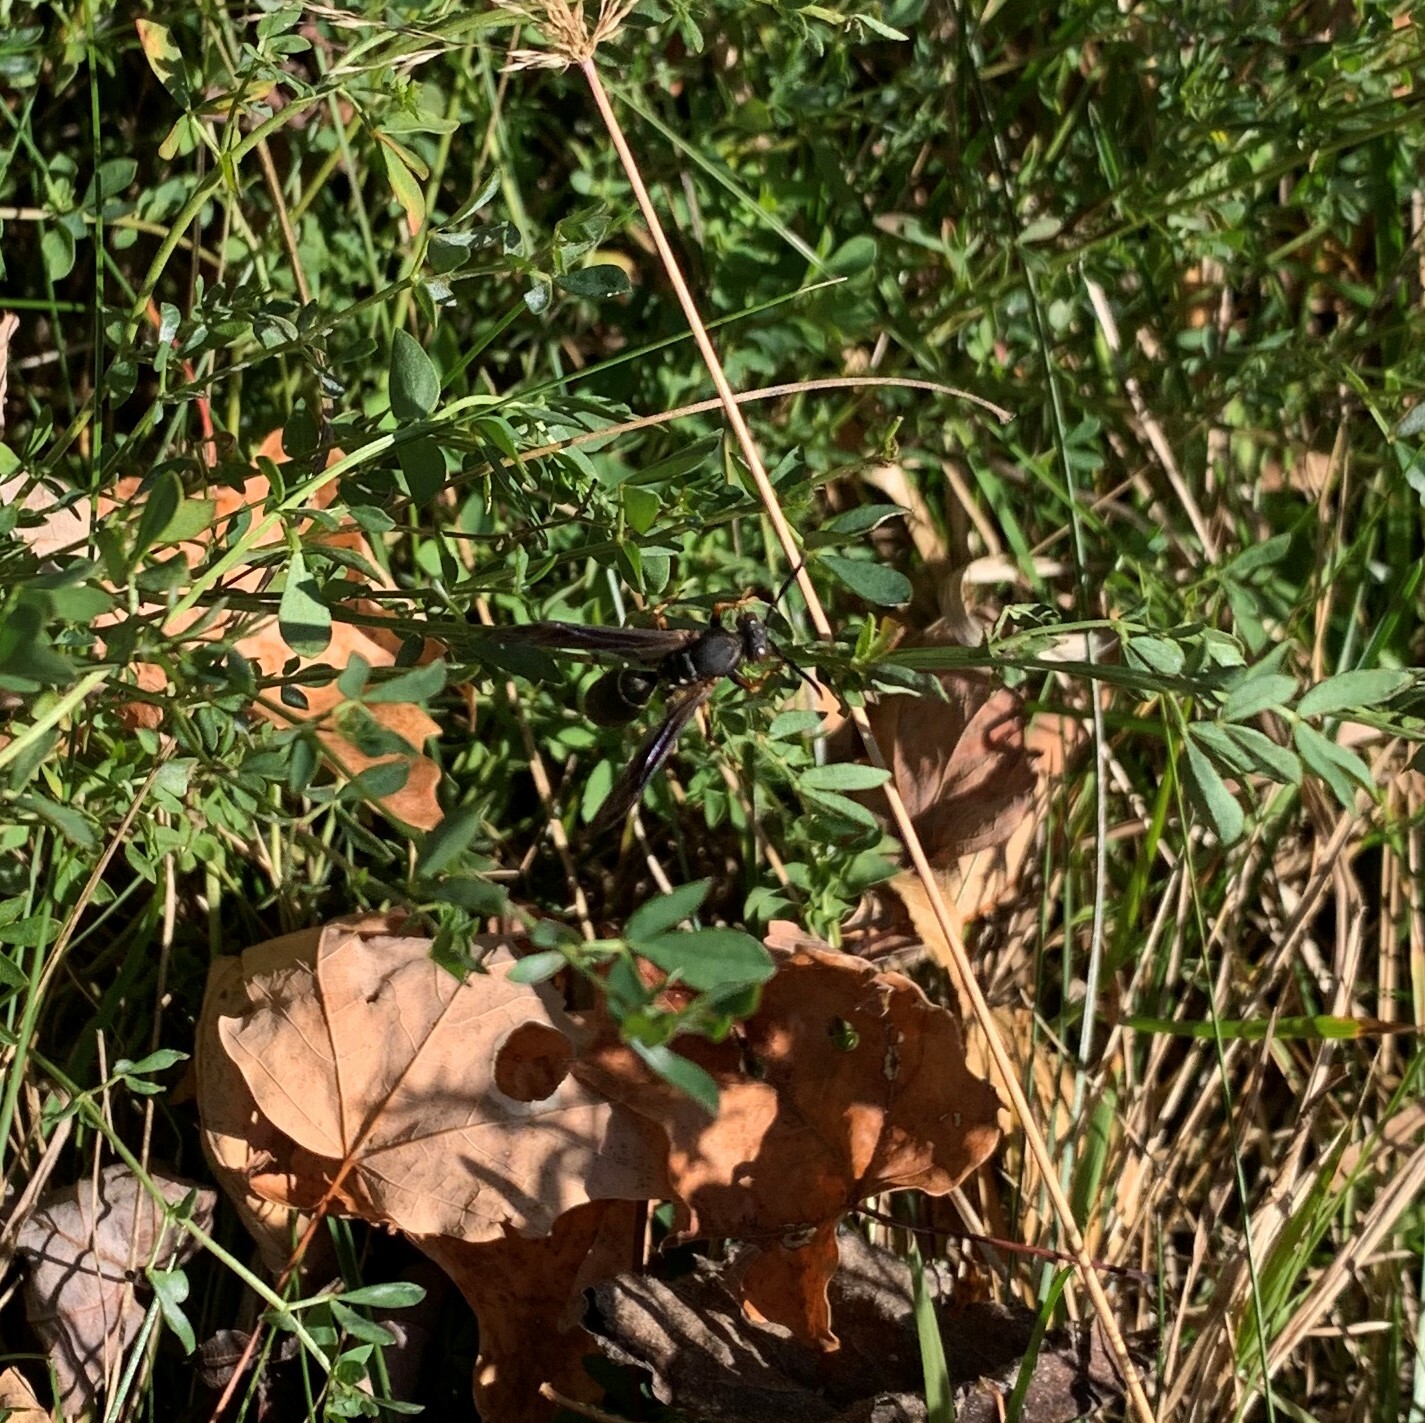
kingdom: Animalia
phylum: Arthropoda
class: Insecta
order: Hymenoptera
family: Eumenidae
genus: Polistes
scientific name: Polistes fuscatus
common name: Dark paper wasp
